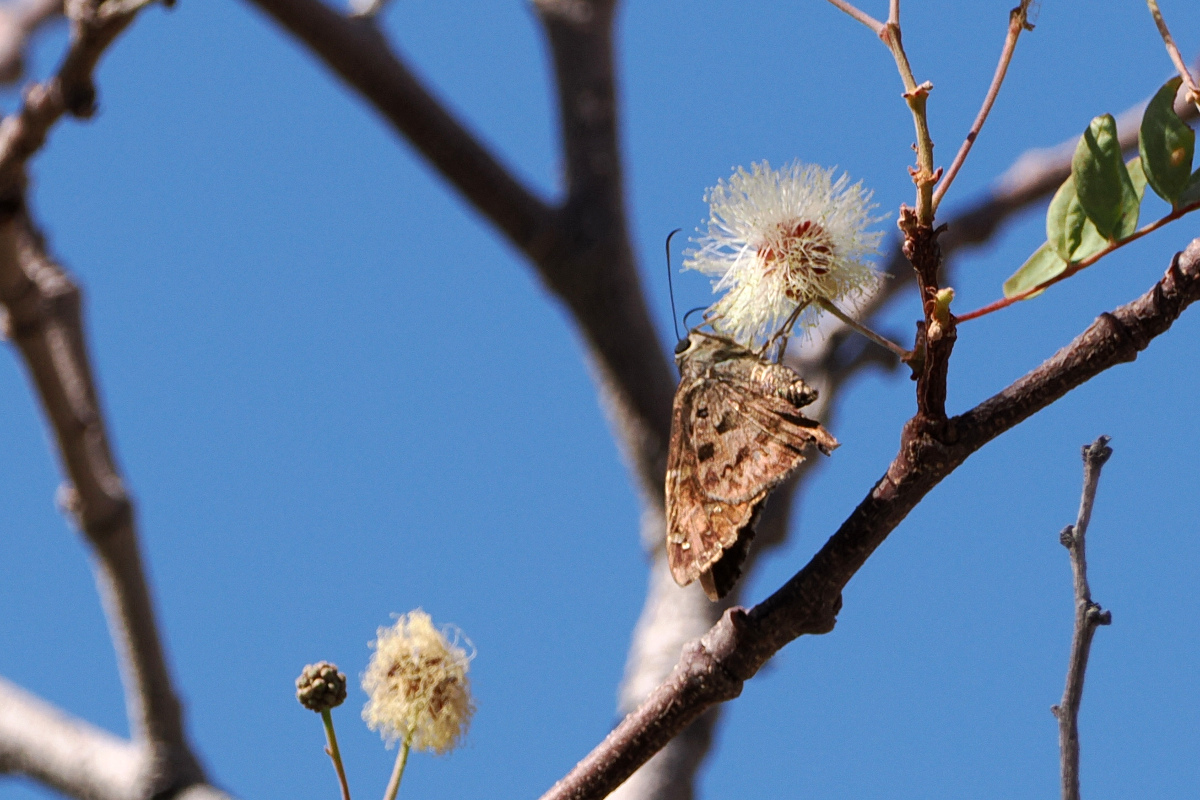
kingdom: Animalia
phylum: Arthropoda
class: Insecta
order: Lepidoptera
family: Hesperiidae
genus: Thorybes
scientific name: Thorybes
